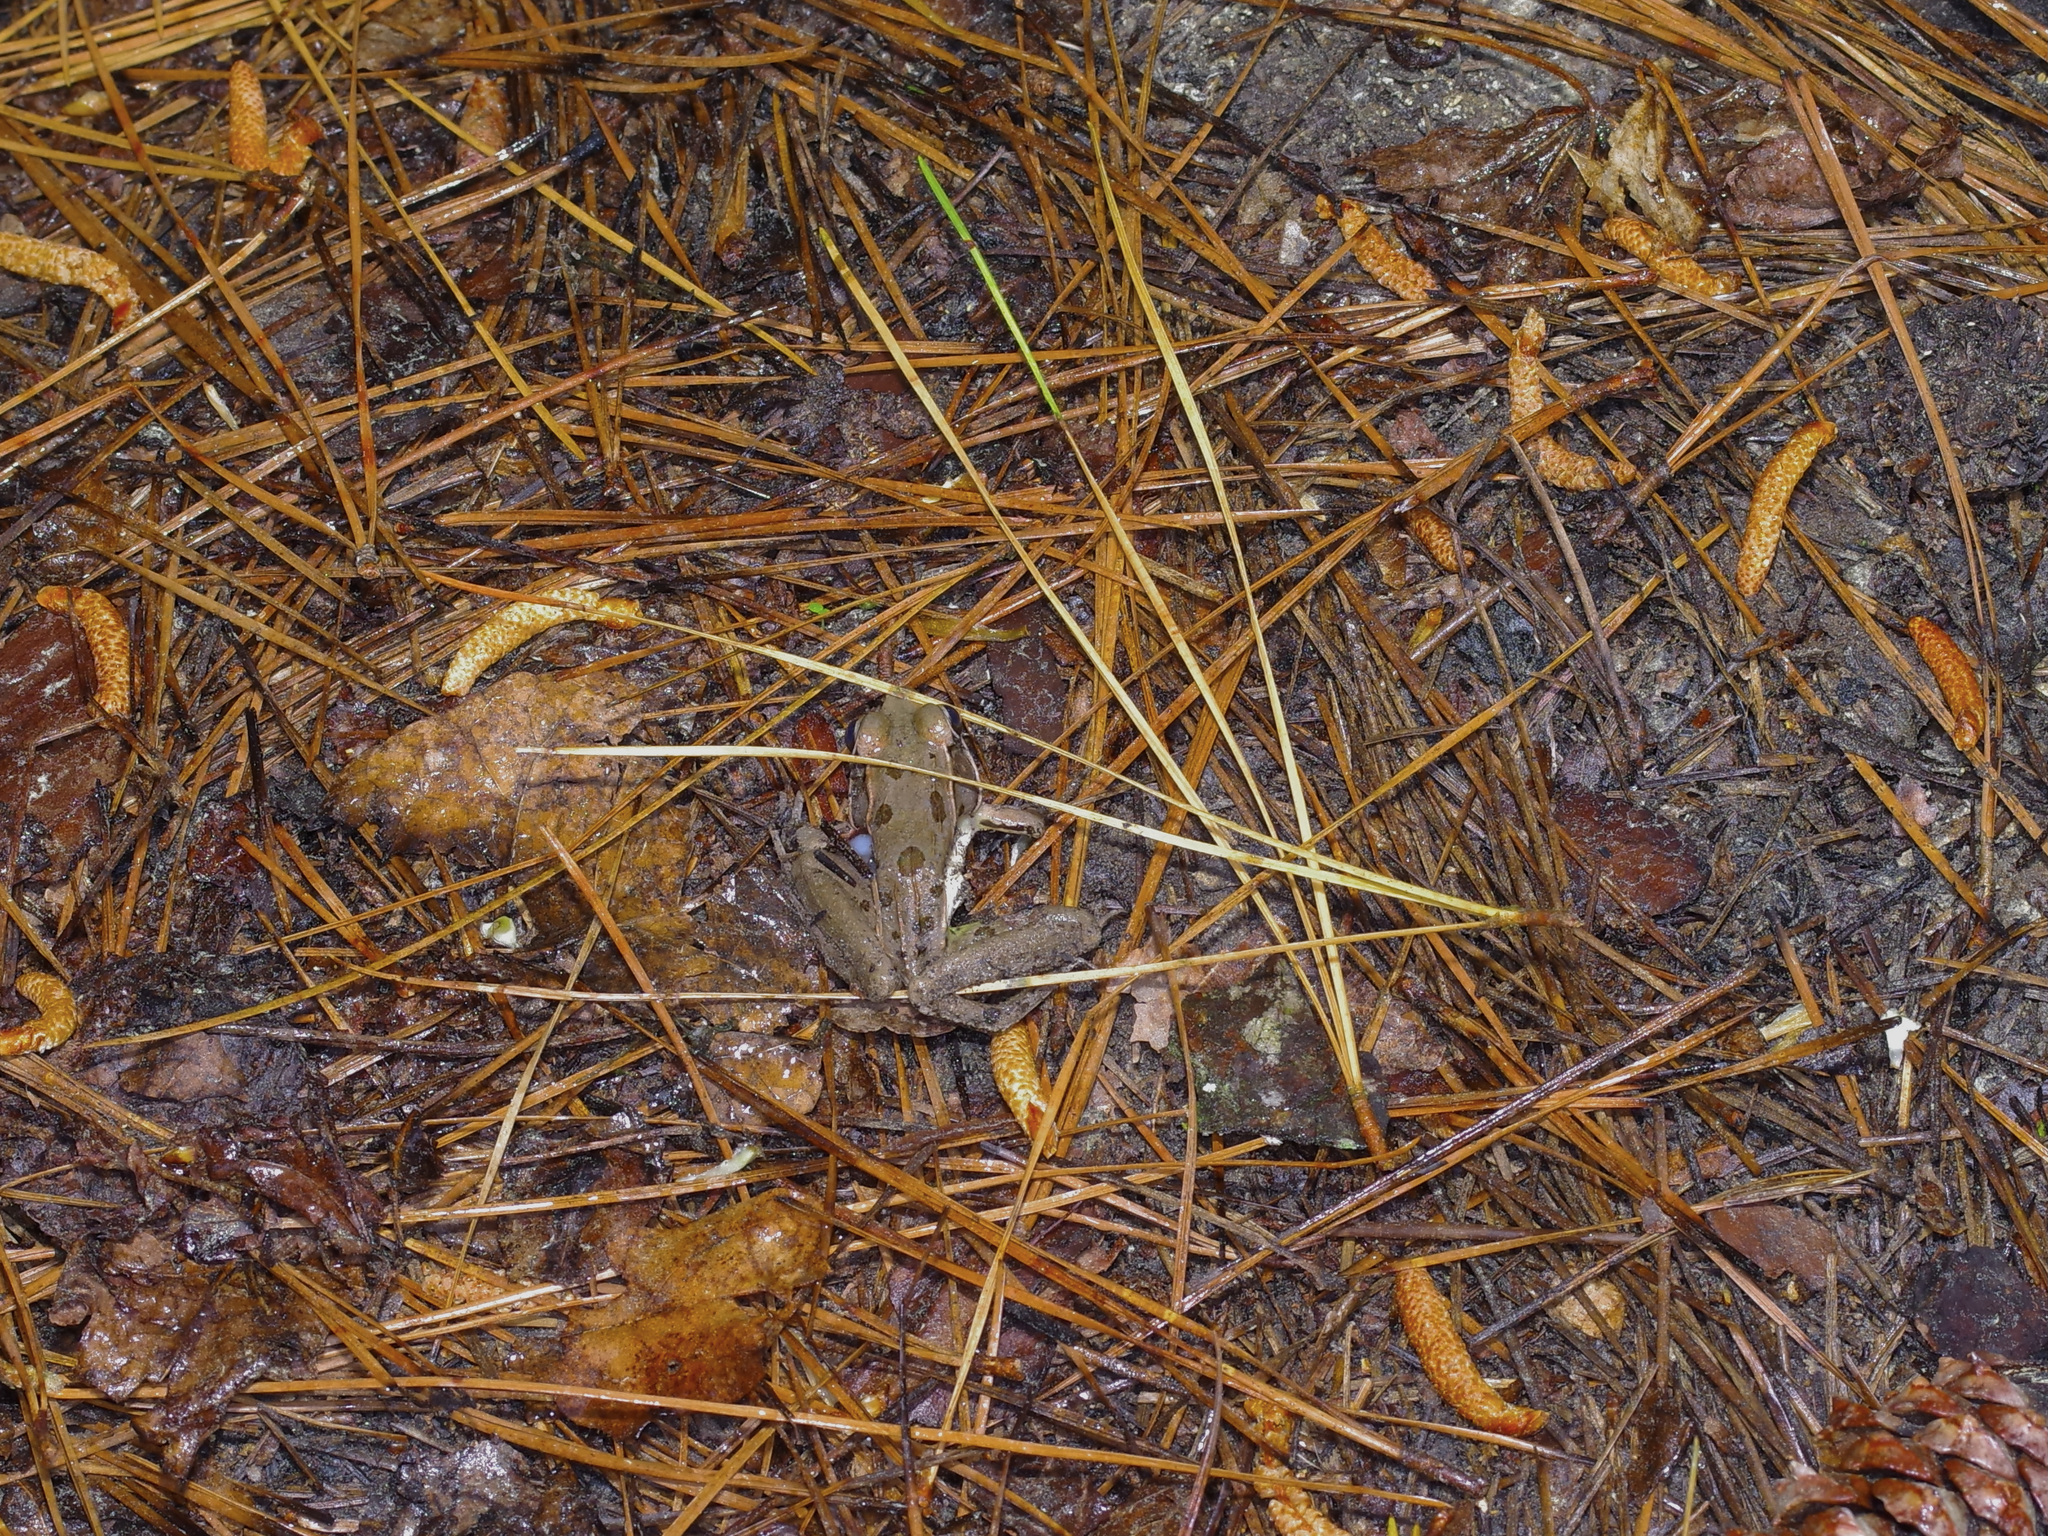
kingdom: Animalia
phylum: Chordata
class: Amphibia
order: Anura
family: Ranidae
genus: Lithobates
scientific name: Lithobates sphenocephalus
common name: Southern leopard frog
